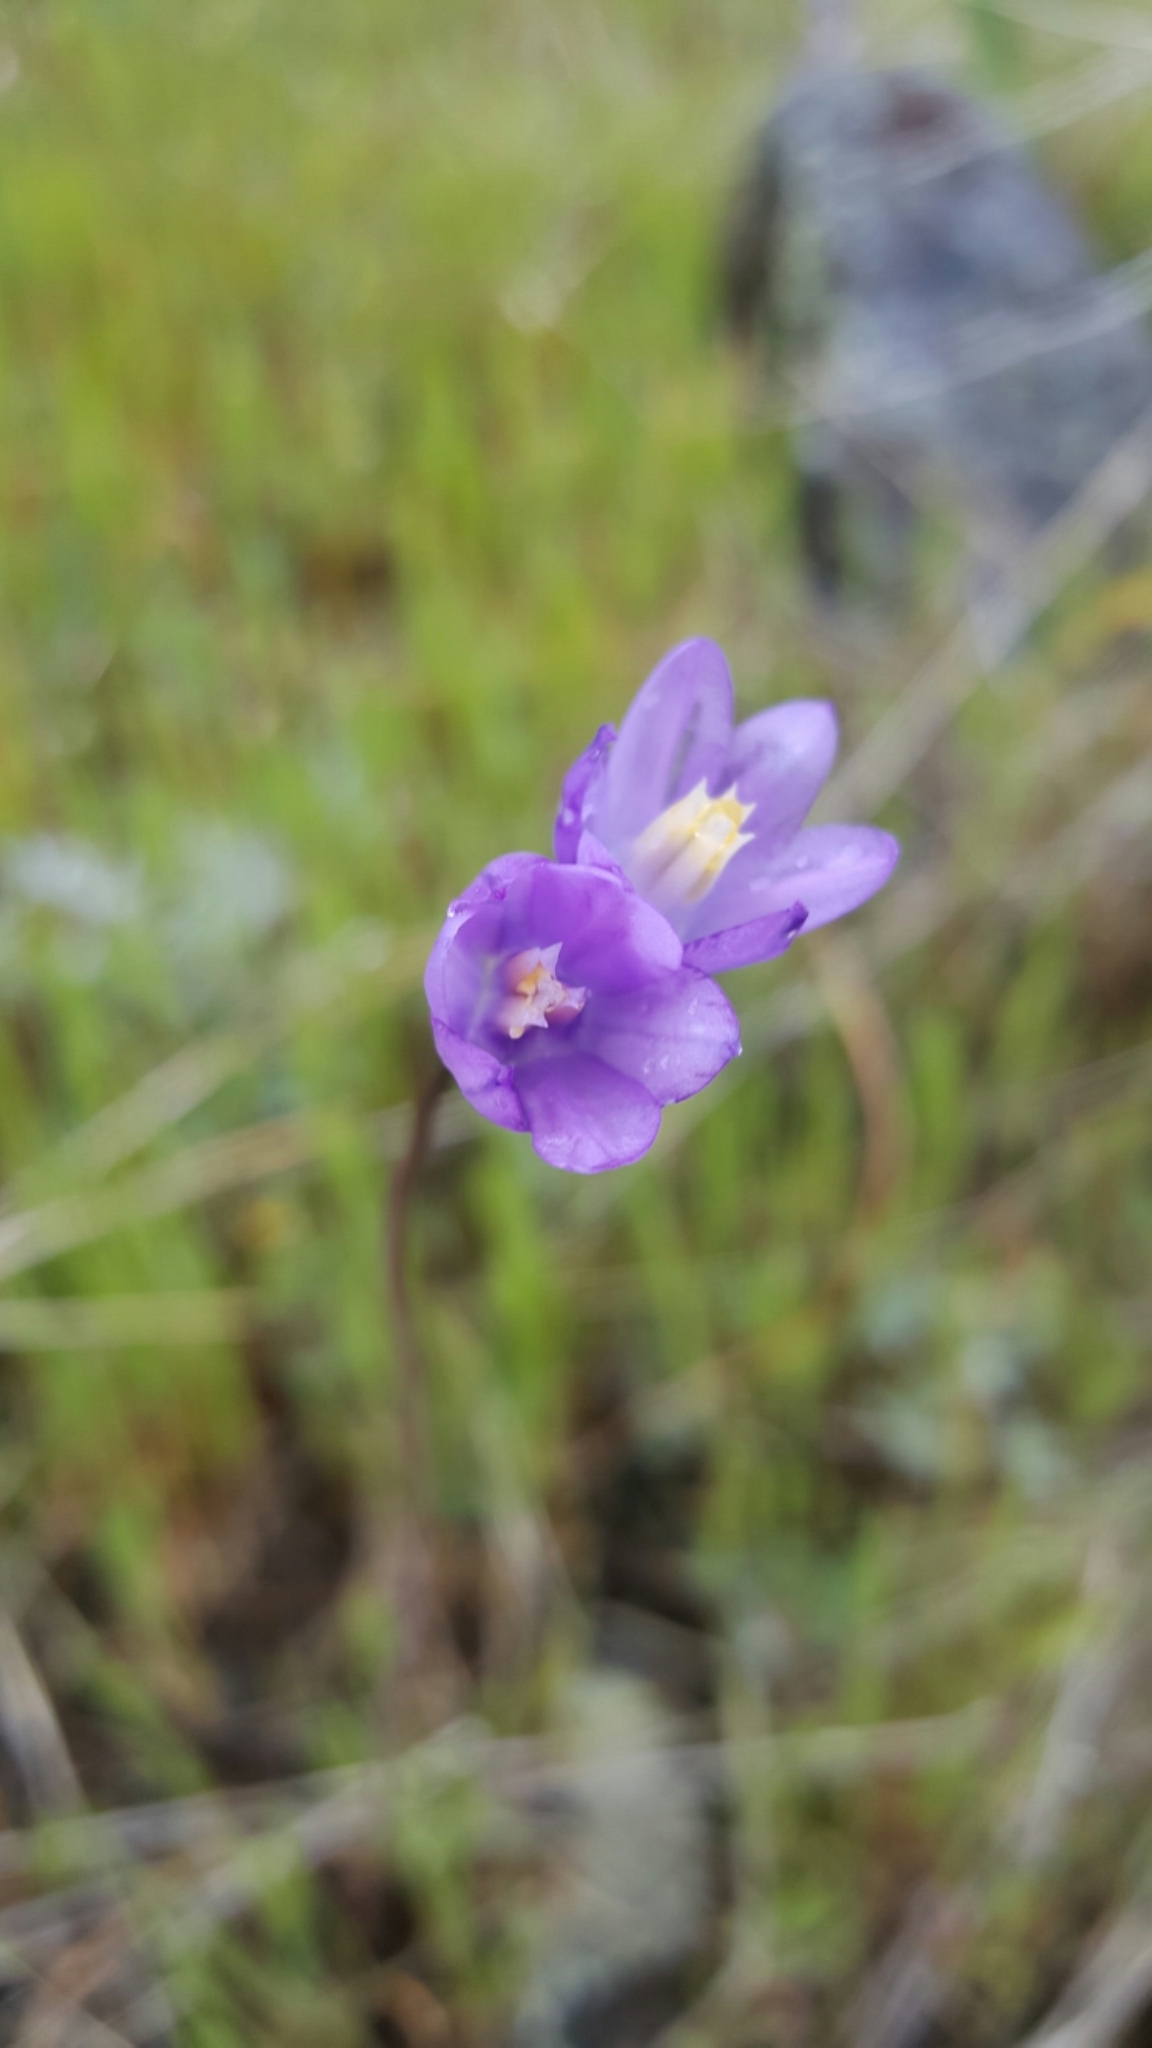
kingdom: Plantae
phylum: Tracheophyta
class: Liliopsida
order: Asparagales
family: Asparagaceae
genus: Dipterostemon
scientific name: Dipterostemon capitatus
